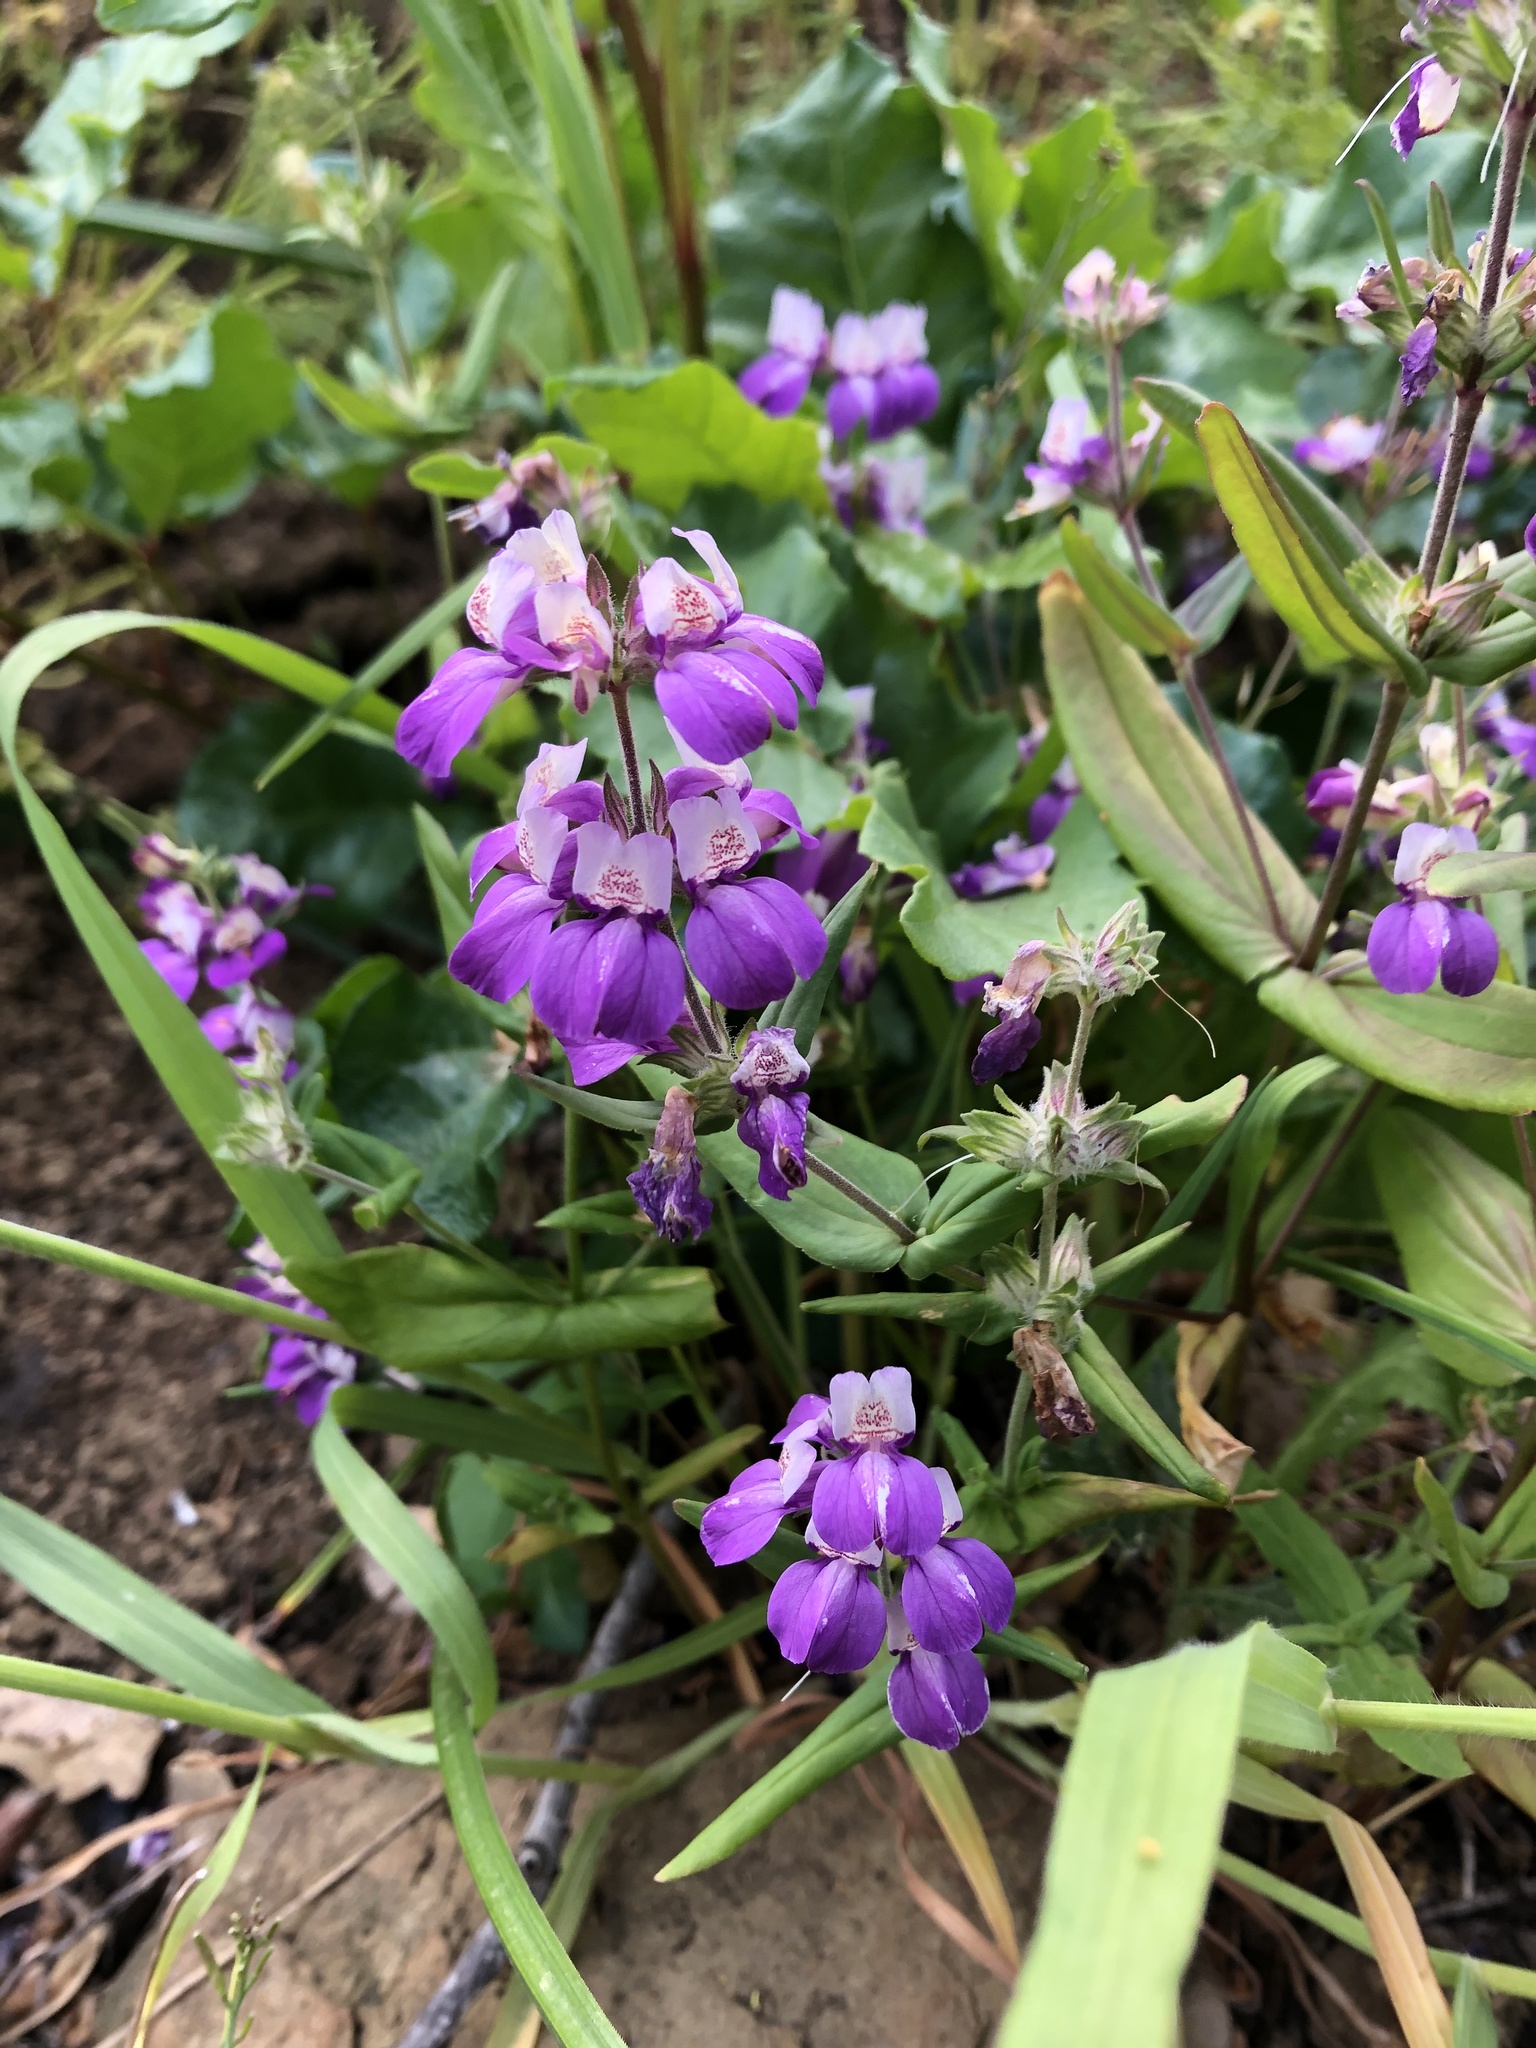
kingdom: Plantae
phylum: Tracheophyta
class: Magnoliopsida
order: Lamiales
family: Plantaginaceae
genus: Collinsia
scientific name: Collinsia heterophylla
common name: Chinese-houses
